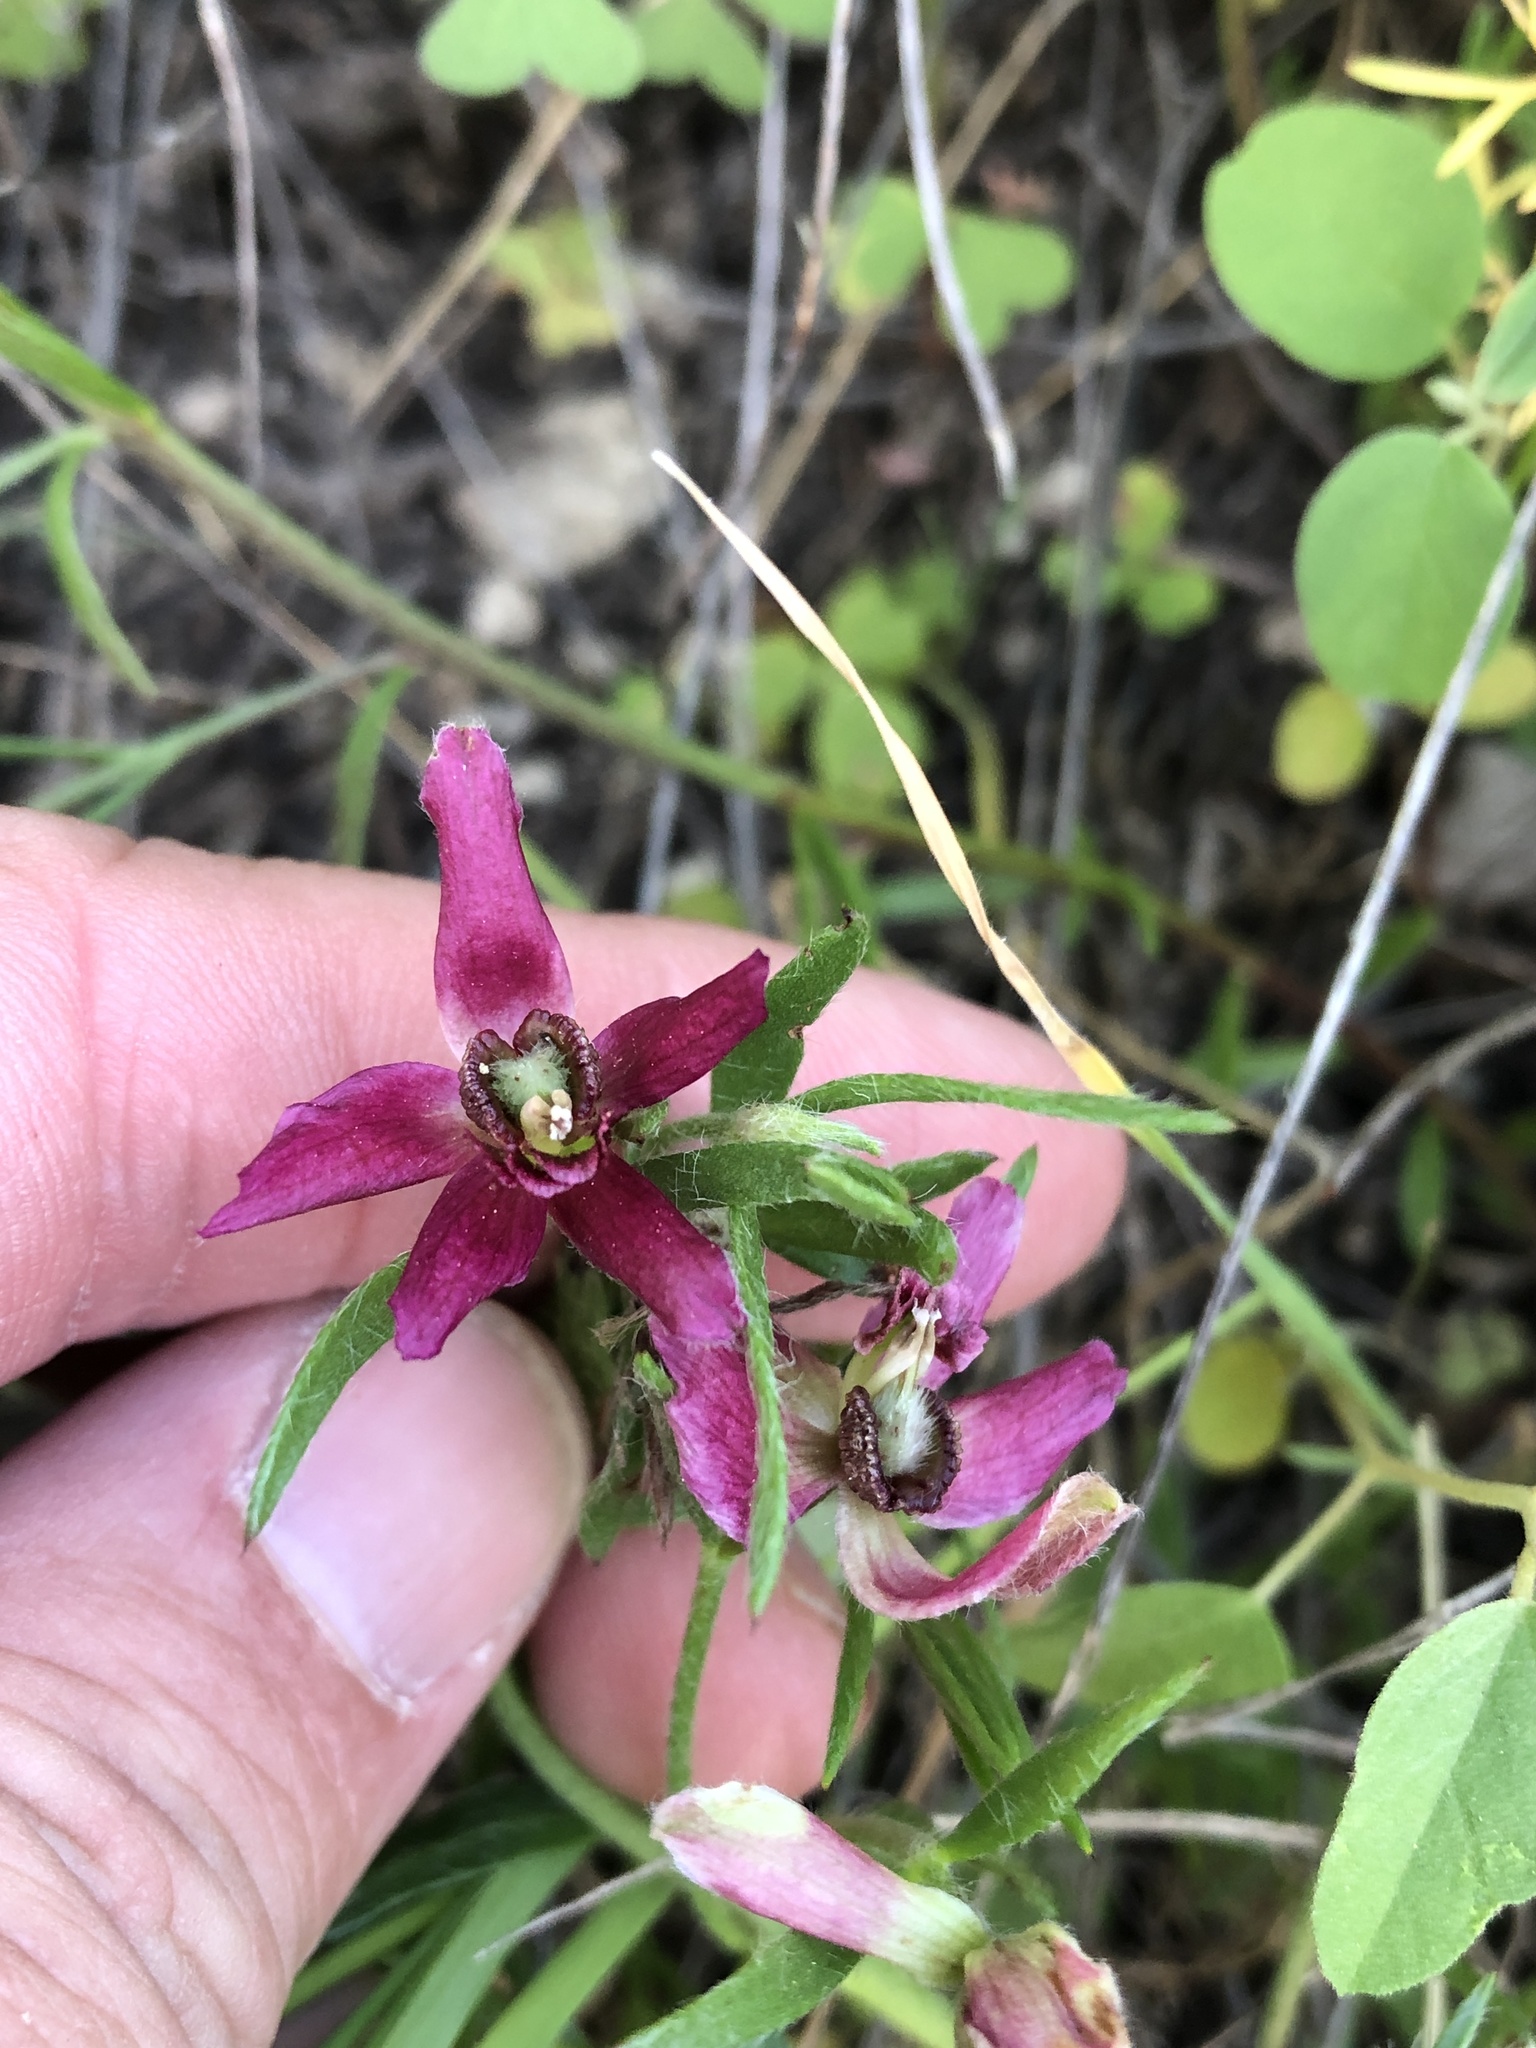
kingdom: Plantae
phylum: Tracheophyta
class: Magnoliopsida
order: Zygophyllales
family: Krameriaceae
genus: Krameria
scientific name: Krameria lanceolata
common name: Ratany
